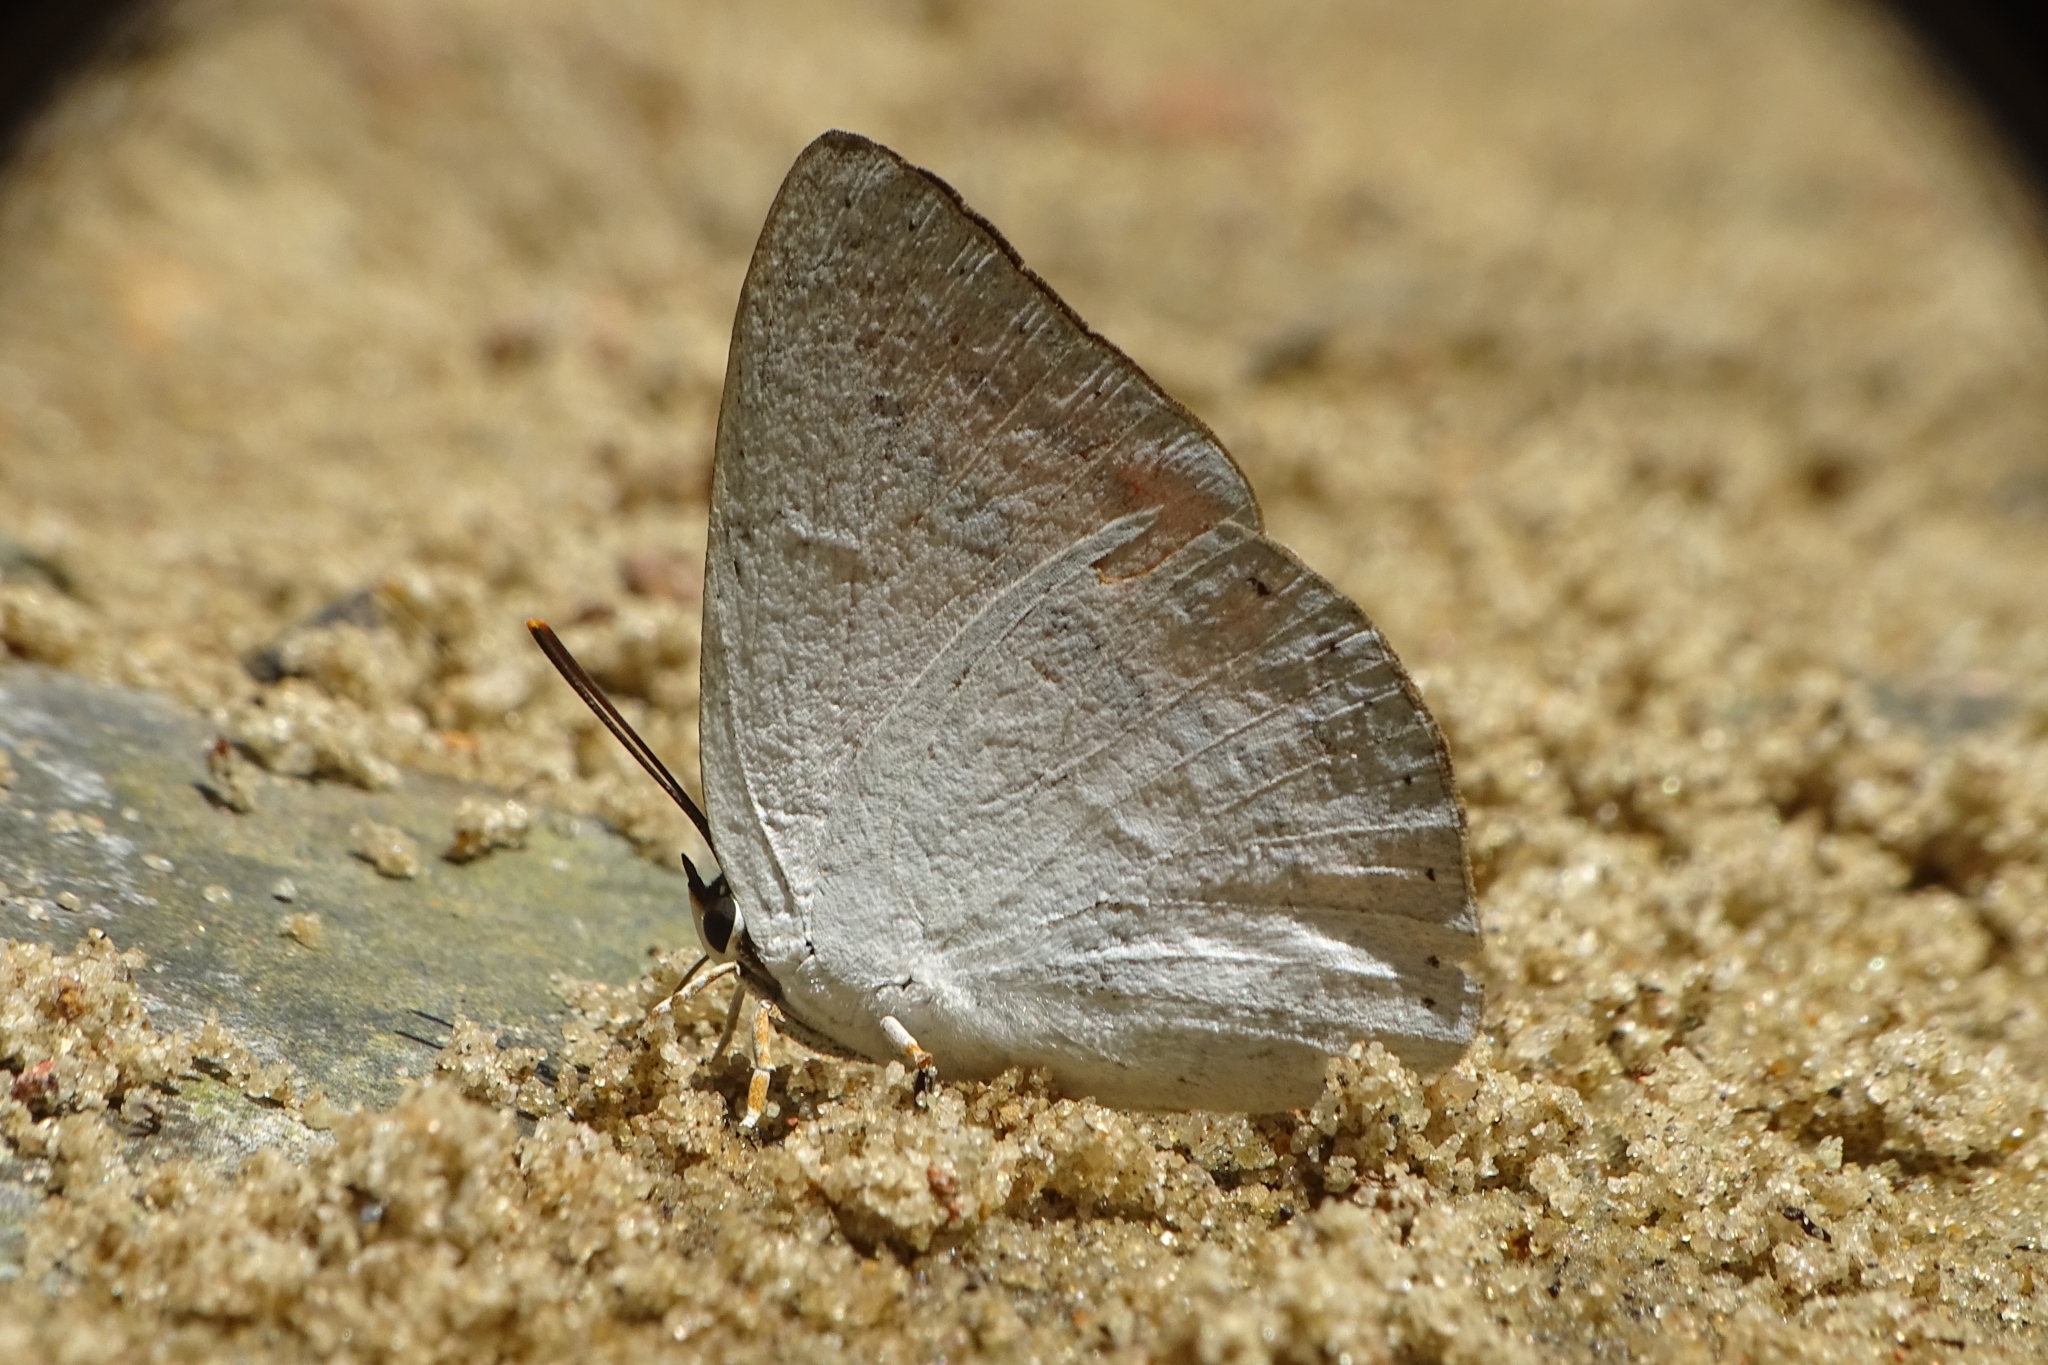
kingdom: Animalia
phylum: Arthropoda
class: Insecta
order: Lepidoptera
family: Lycaenidae
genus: Curetis
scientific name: Curetis thetis
